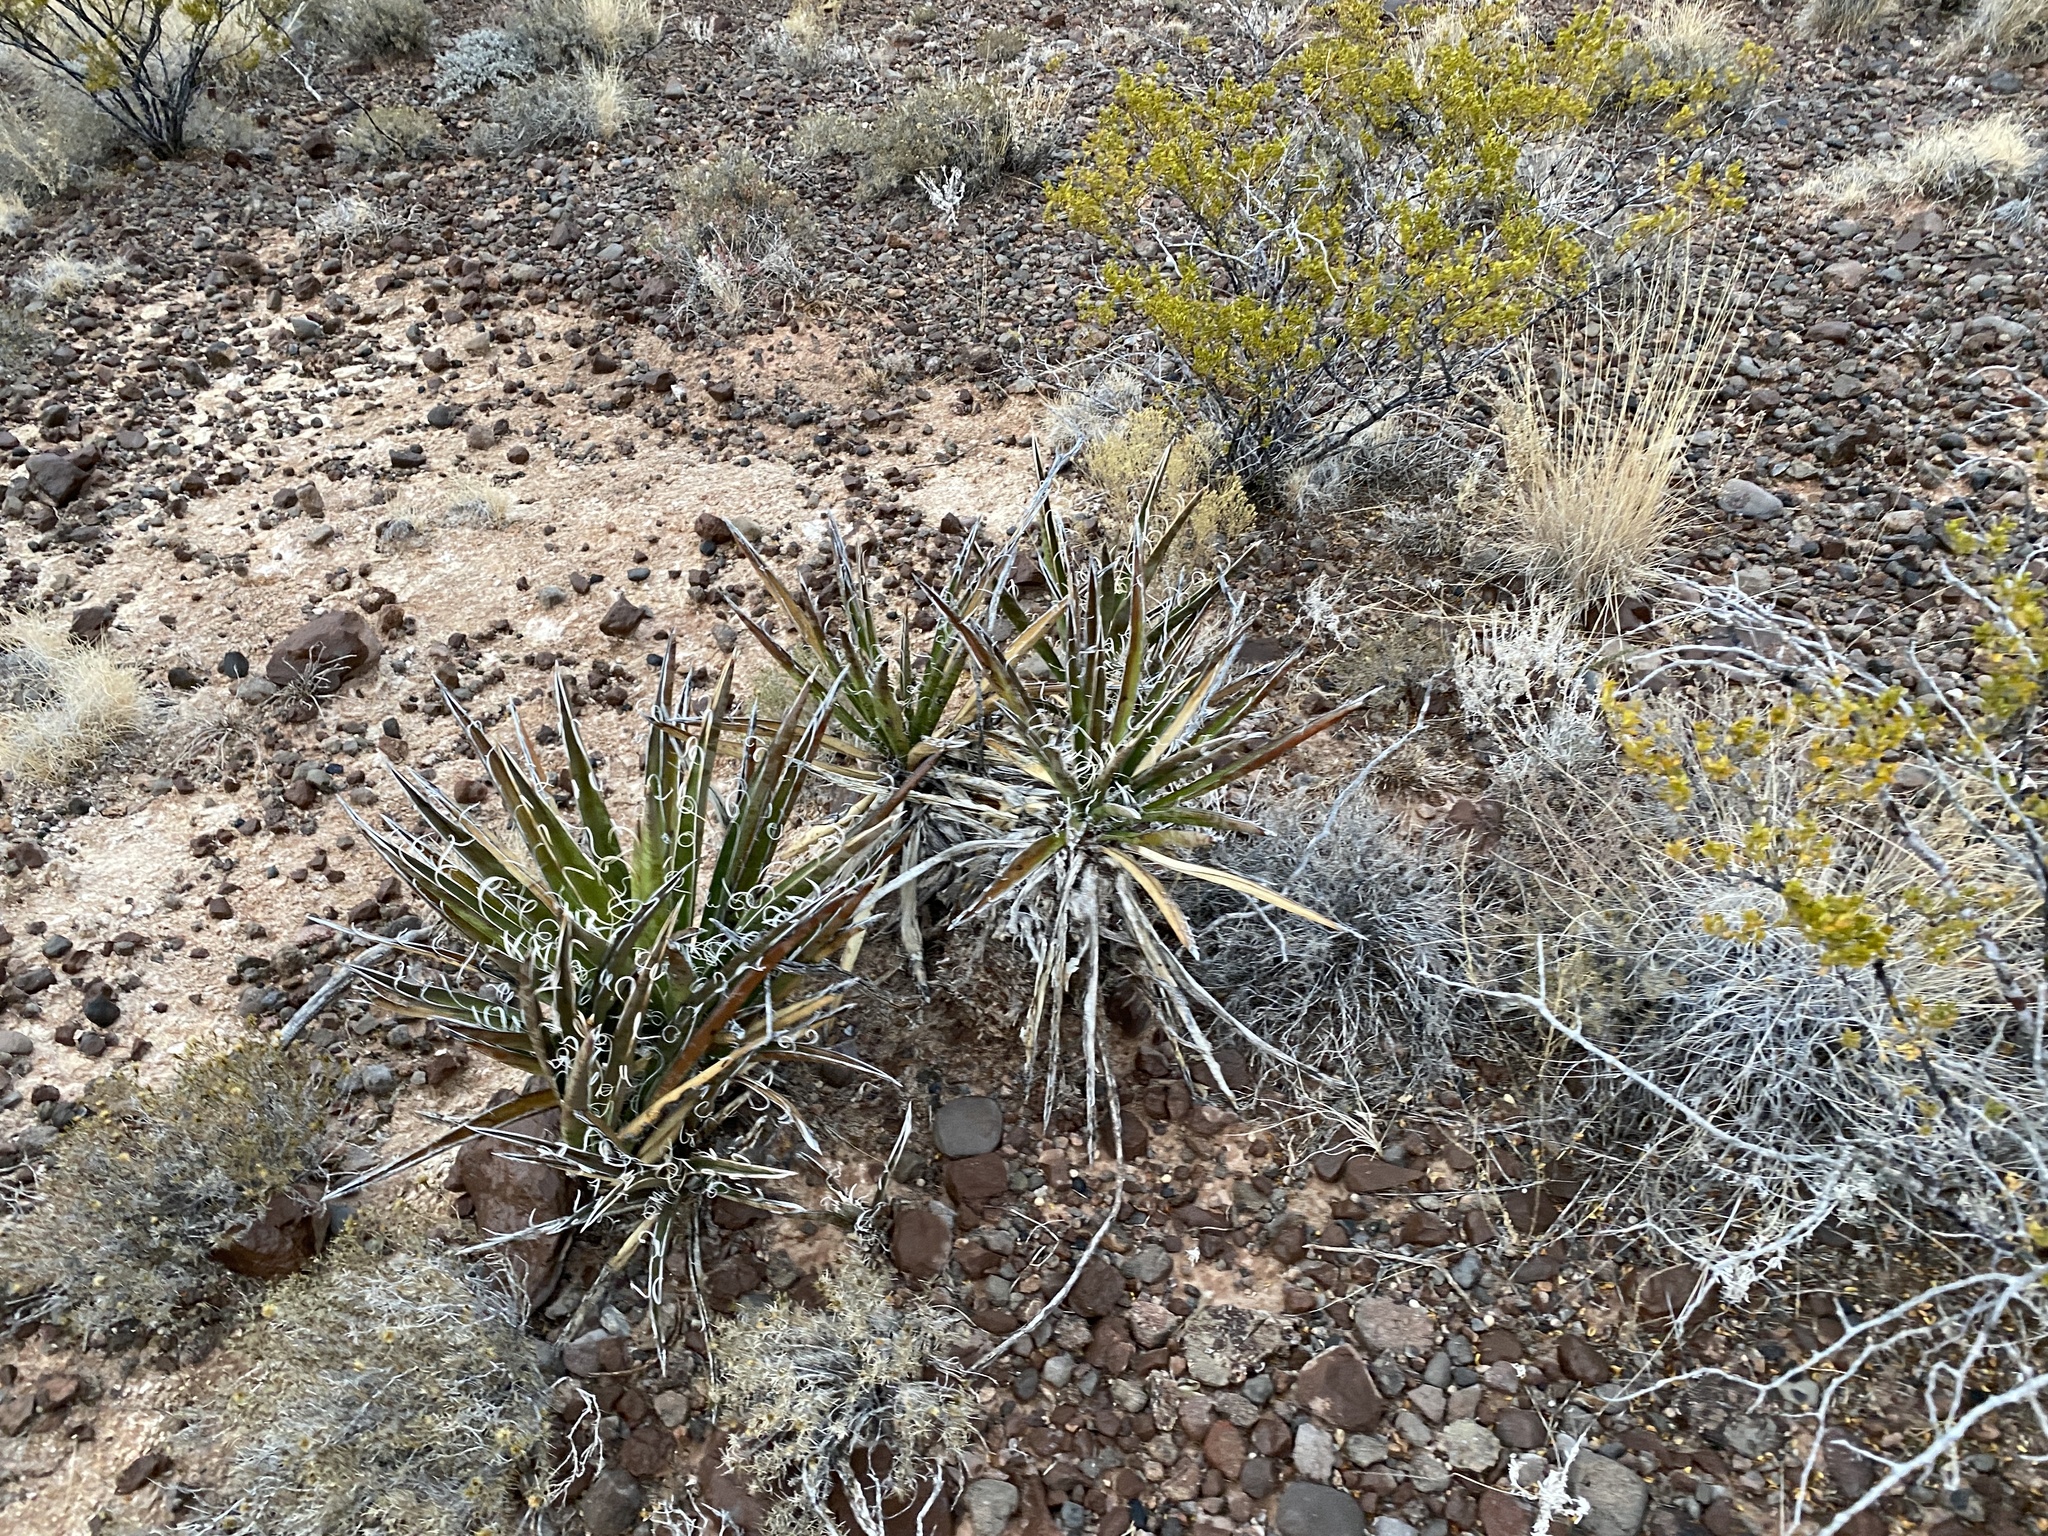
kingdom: Plantae
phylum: Tracheophyta
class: Liliopsida
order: Asparagales
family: Asparagaceae
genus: Yucca
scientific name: Yucca baccata
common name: Banana yucca
